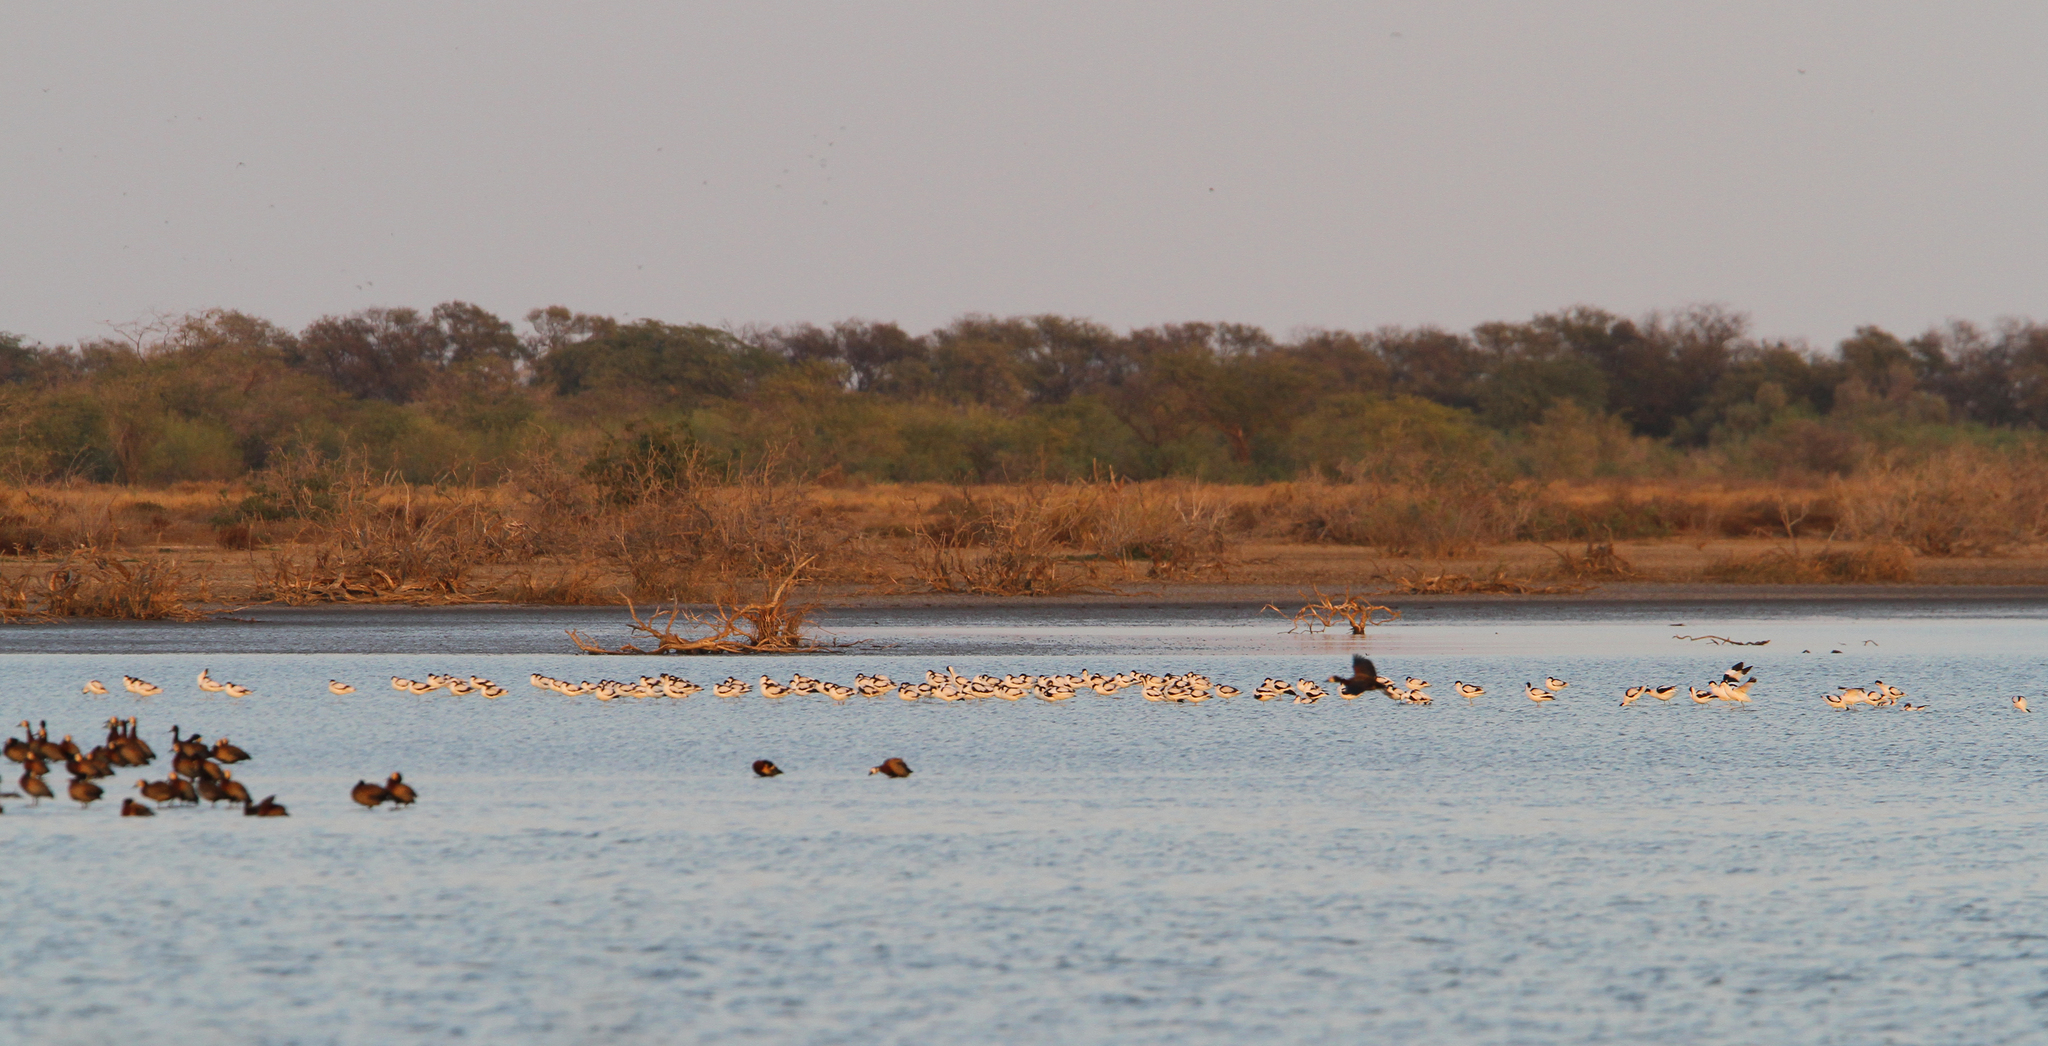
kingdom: Animalia
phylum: Chordata
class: Aves
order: Charadriiformes
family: Recurvirostridae
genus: Recurvirostra
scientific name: Recurvirostra avosetta
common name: Pied avocet
